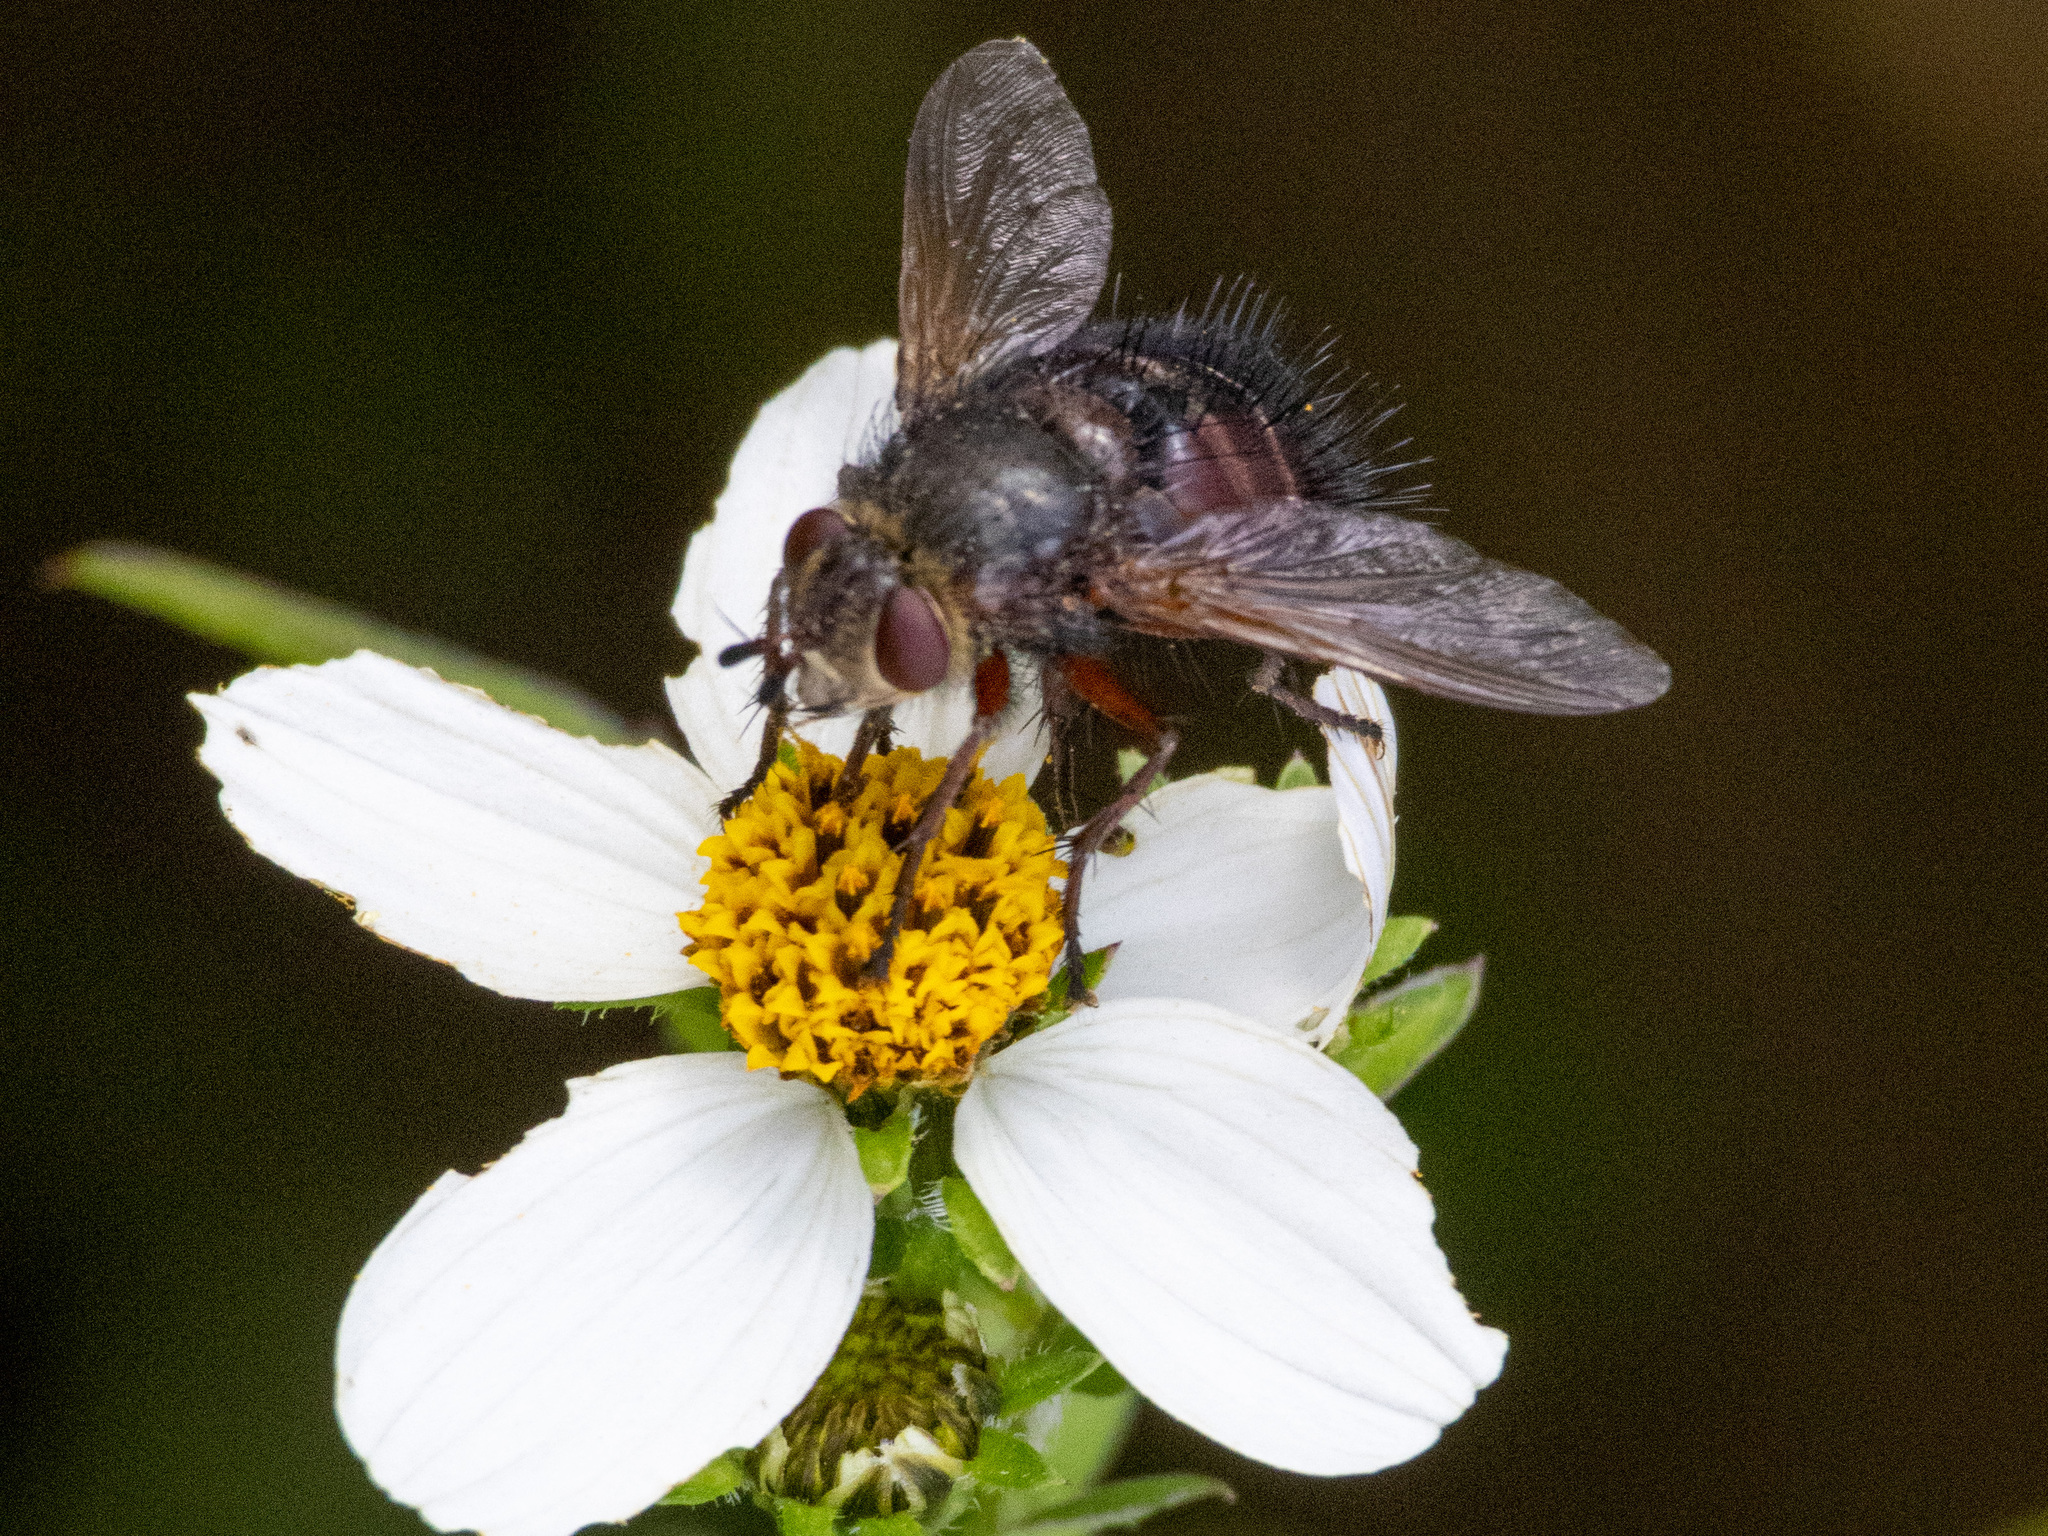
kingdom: Animalia
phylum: Arthropoda
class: Insecta
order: Diptera
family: Tachinidae
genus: Tachina
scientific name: Tachina canariensis
